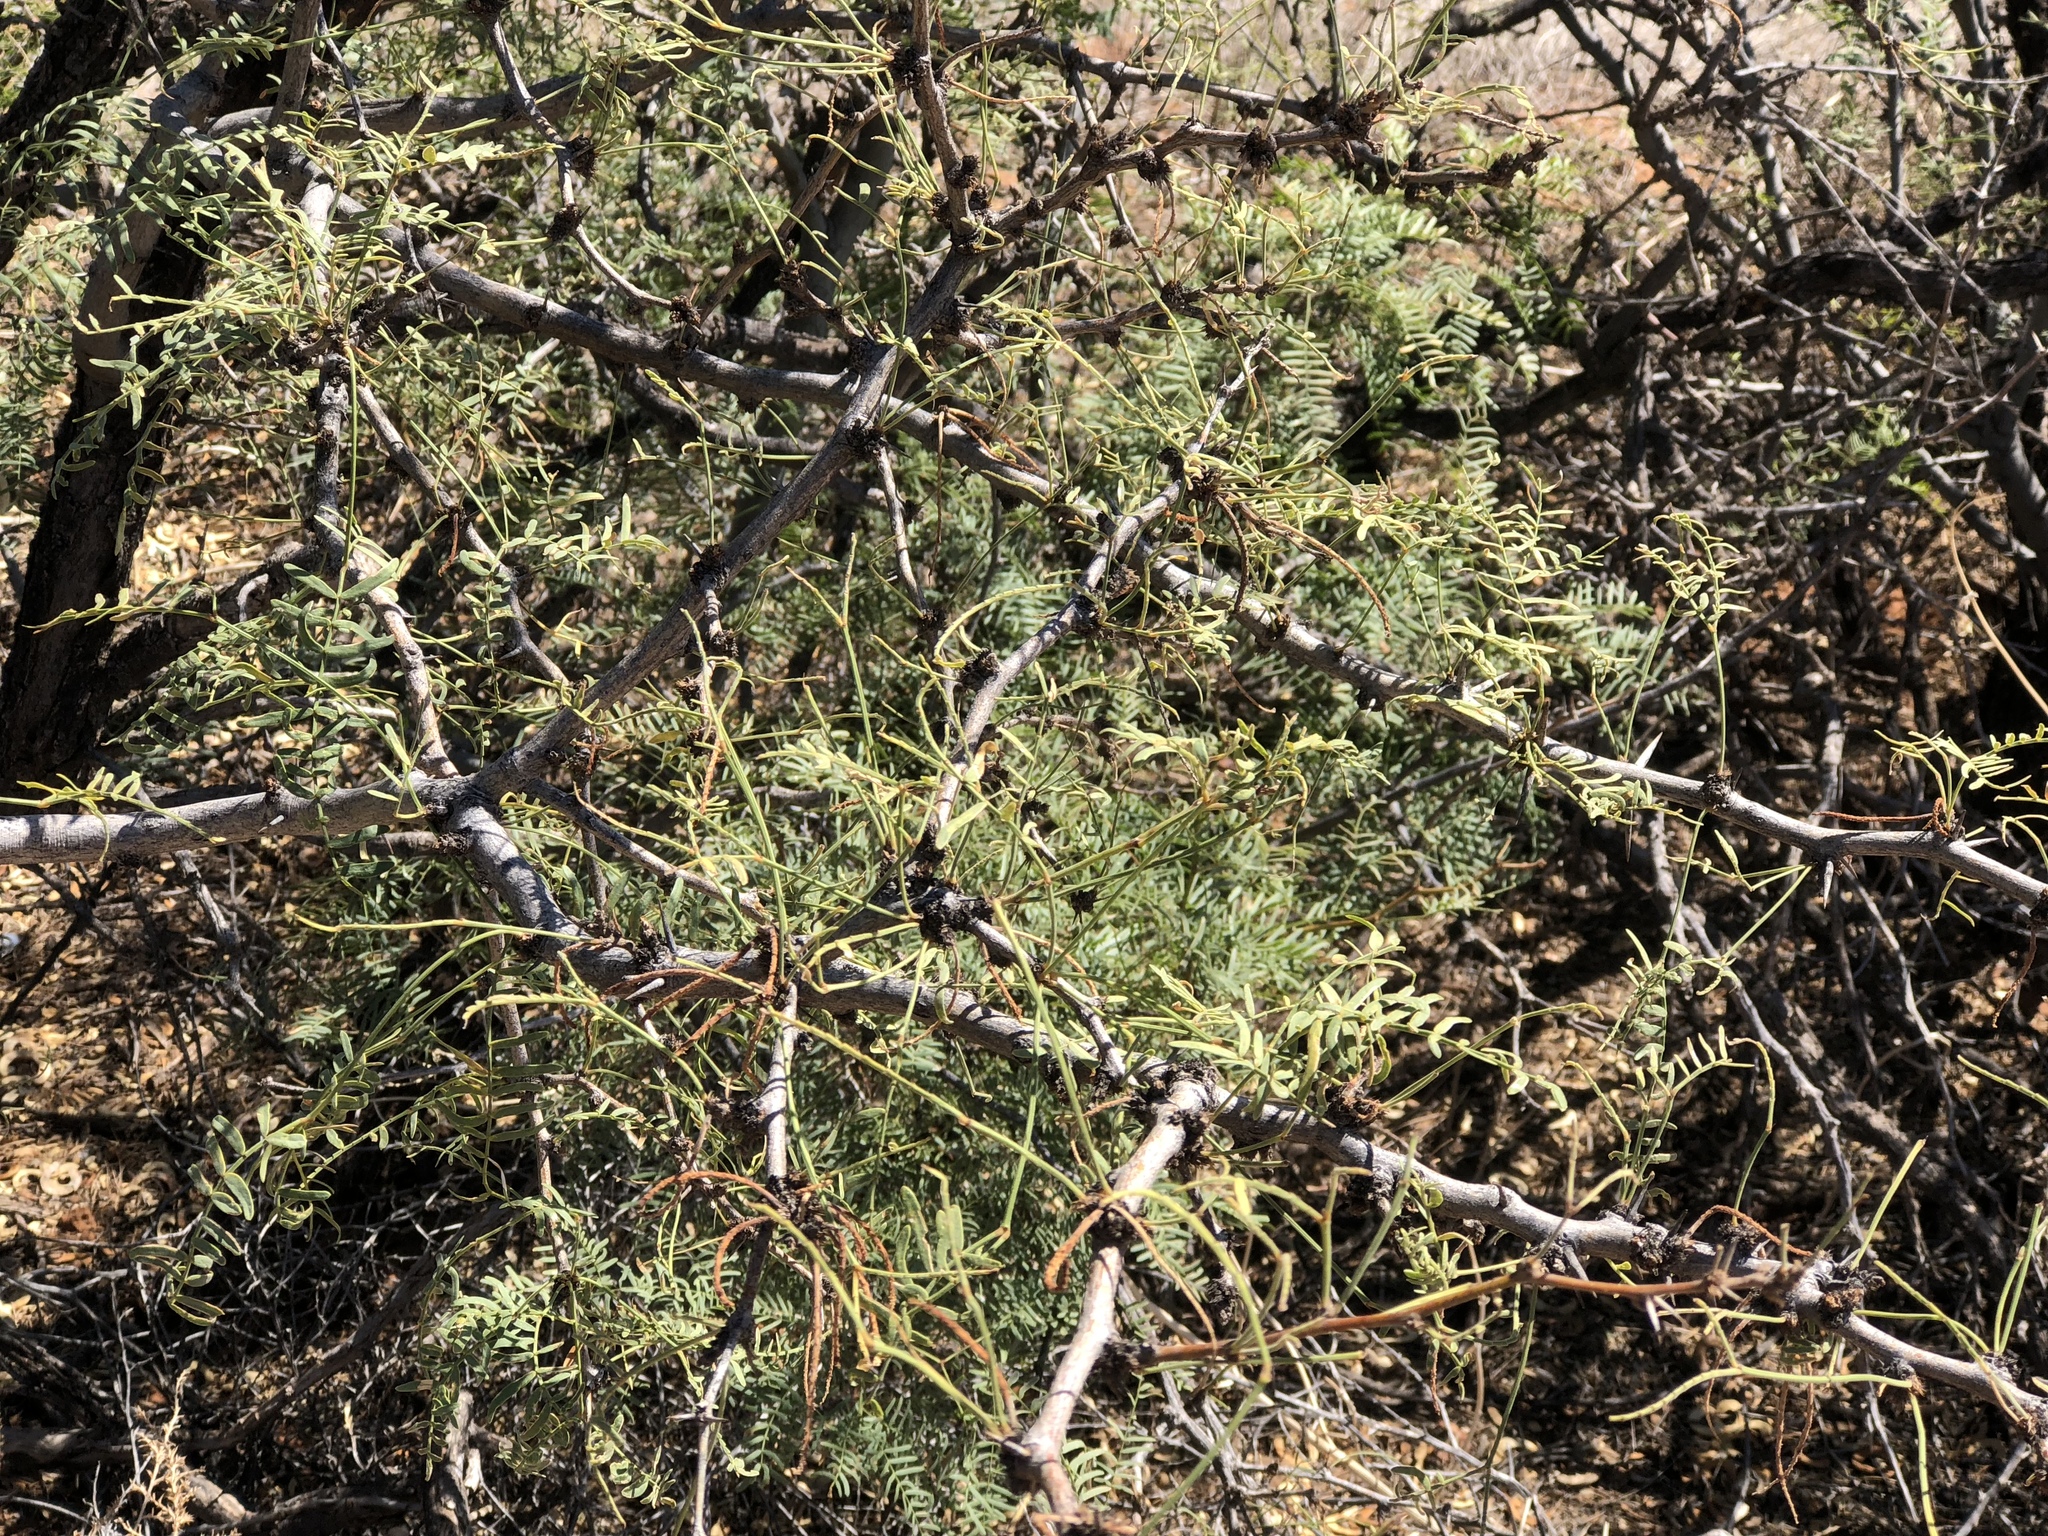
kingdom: Plantae
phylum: Tracheophyta
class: Magnoliopsida
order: Fabales
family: Fabaceae
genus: Prosopis
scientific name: Prosopis glandulosa
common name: Honey mesquite
